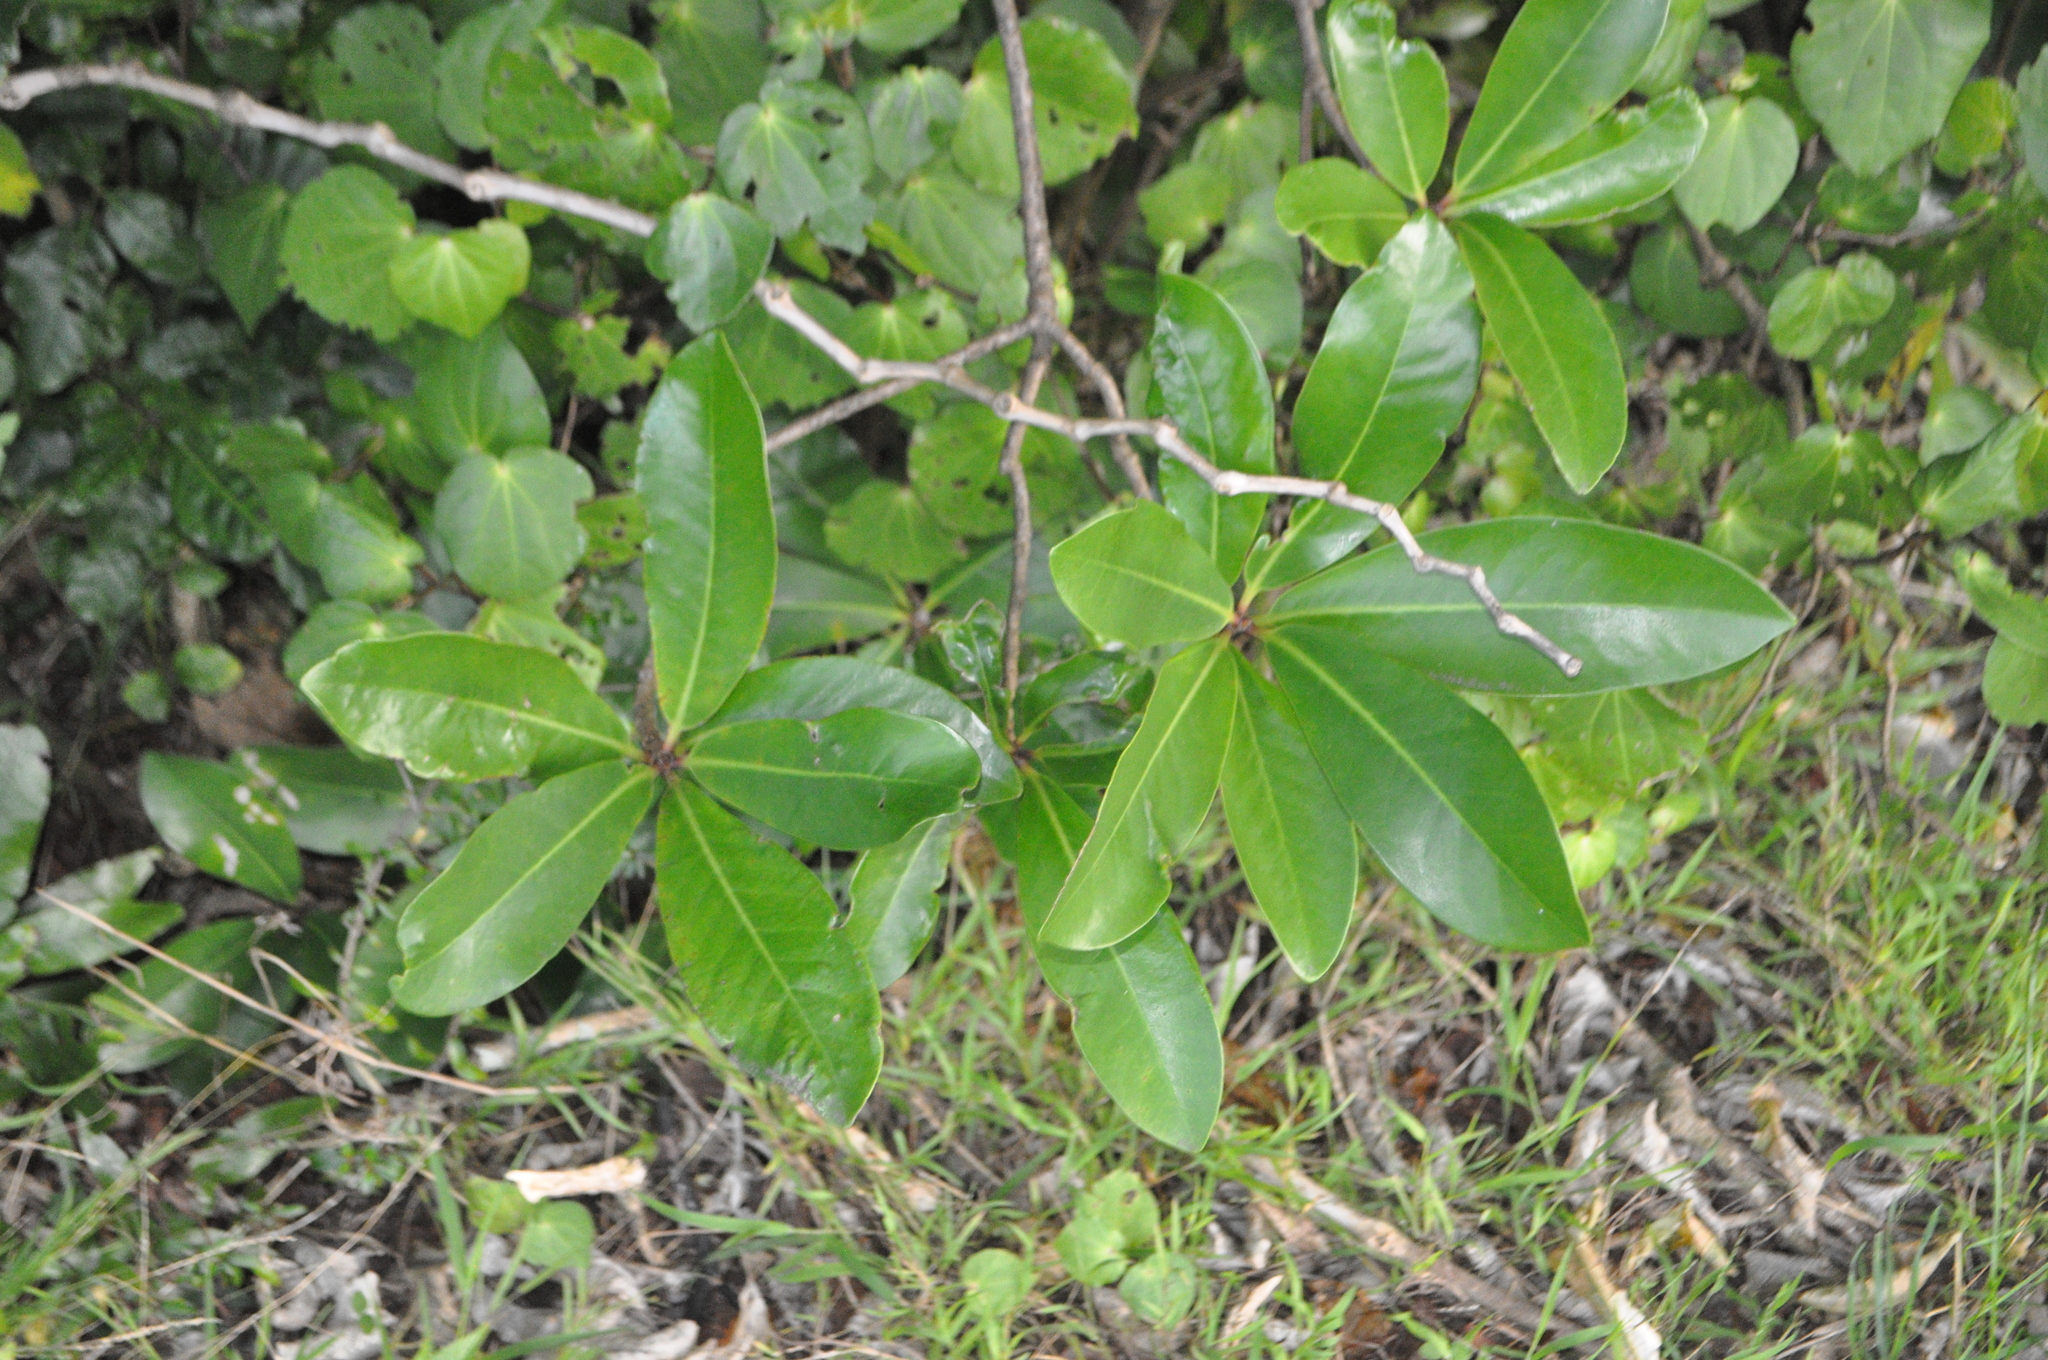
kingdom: Plantae
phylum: Tracheophyta
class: Magnoliopsida
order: Cucurbitales
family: Corynocarpaceae
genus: Corynocarpus
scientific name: Corynocarpus laevigatus
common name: New zealand laurel
